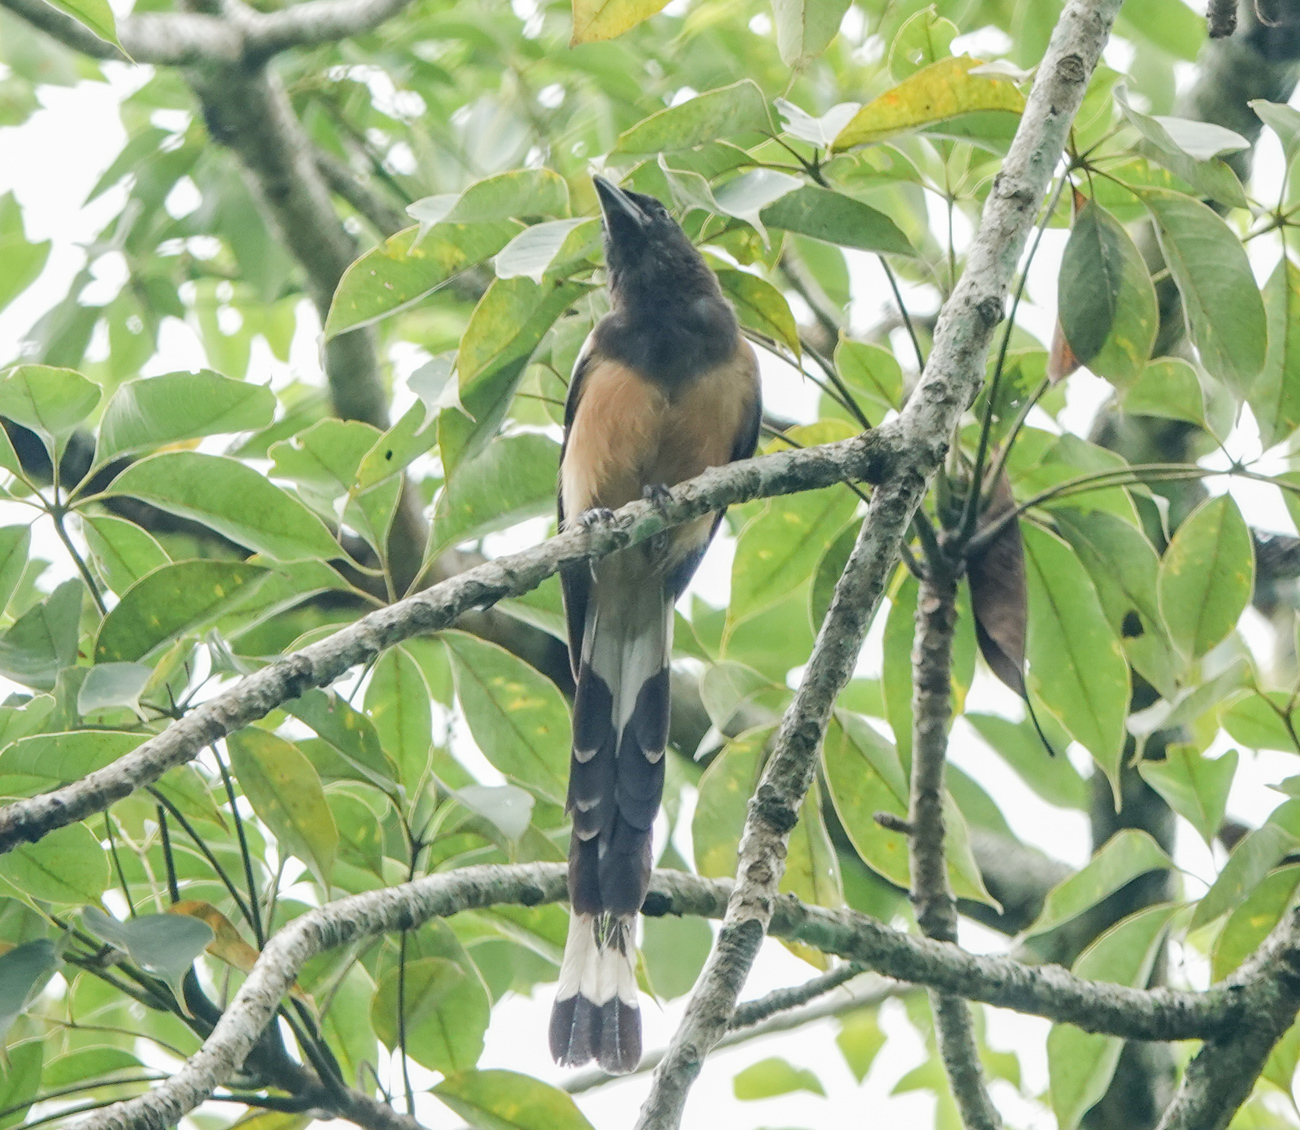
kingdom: Animalia
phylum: Chordata
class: Aves
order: Passeriformes
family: Corvidae
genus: Dendrocitta
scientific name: Dendrocitta vagabunda
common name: Rufous treepie
